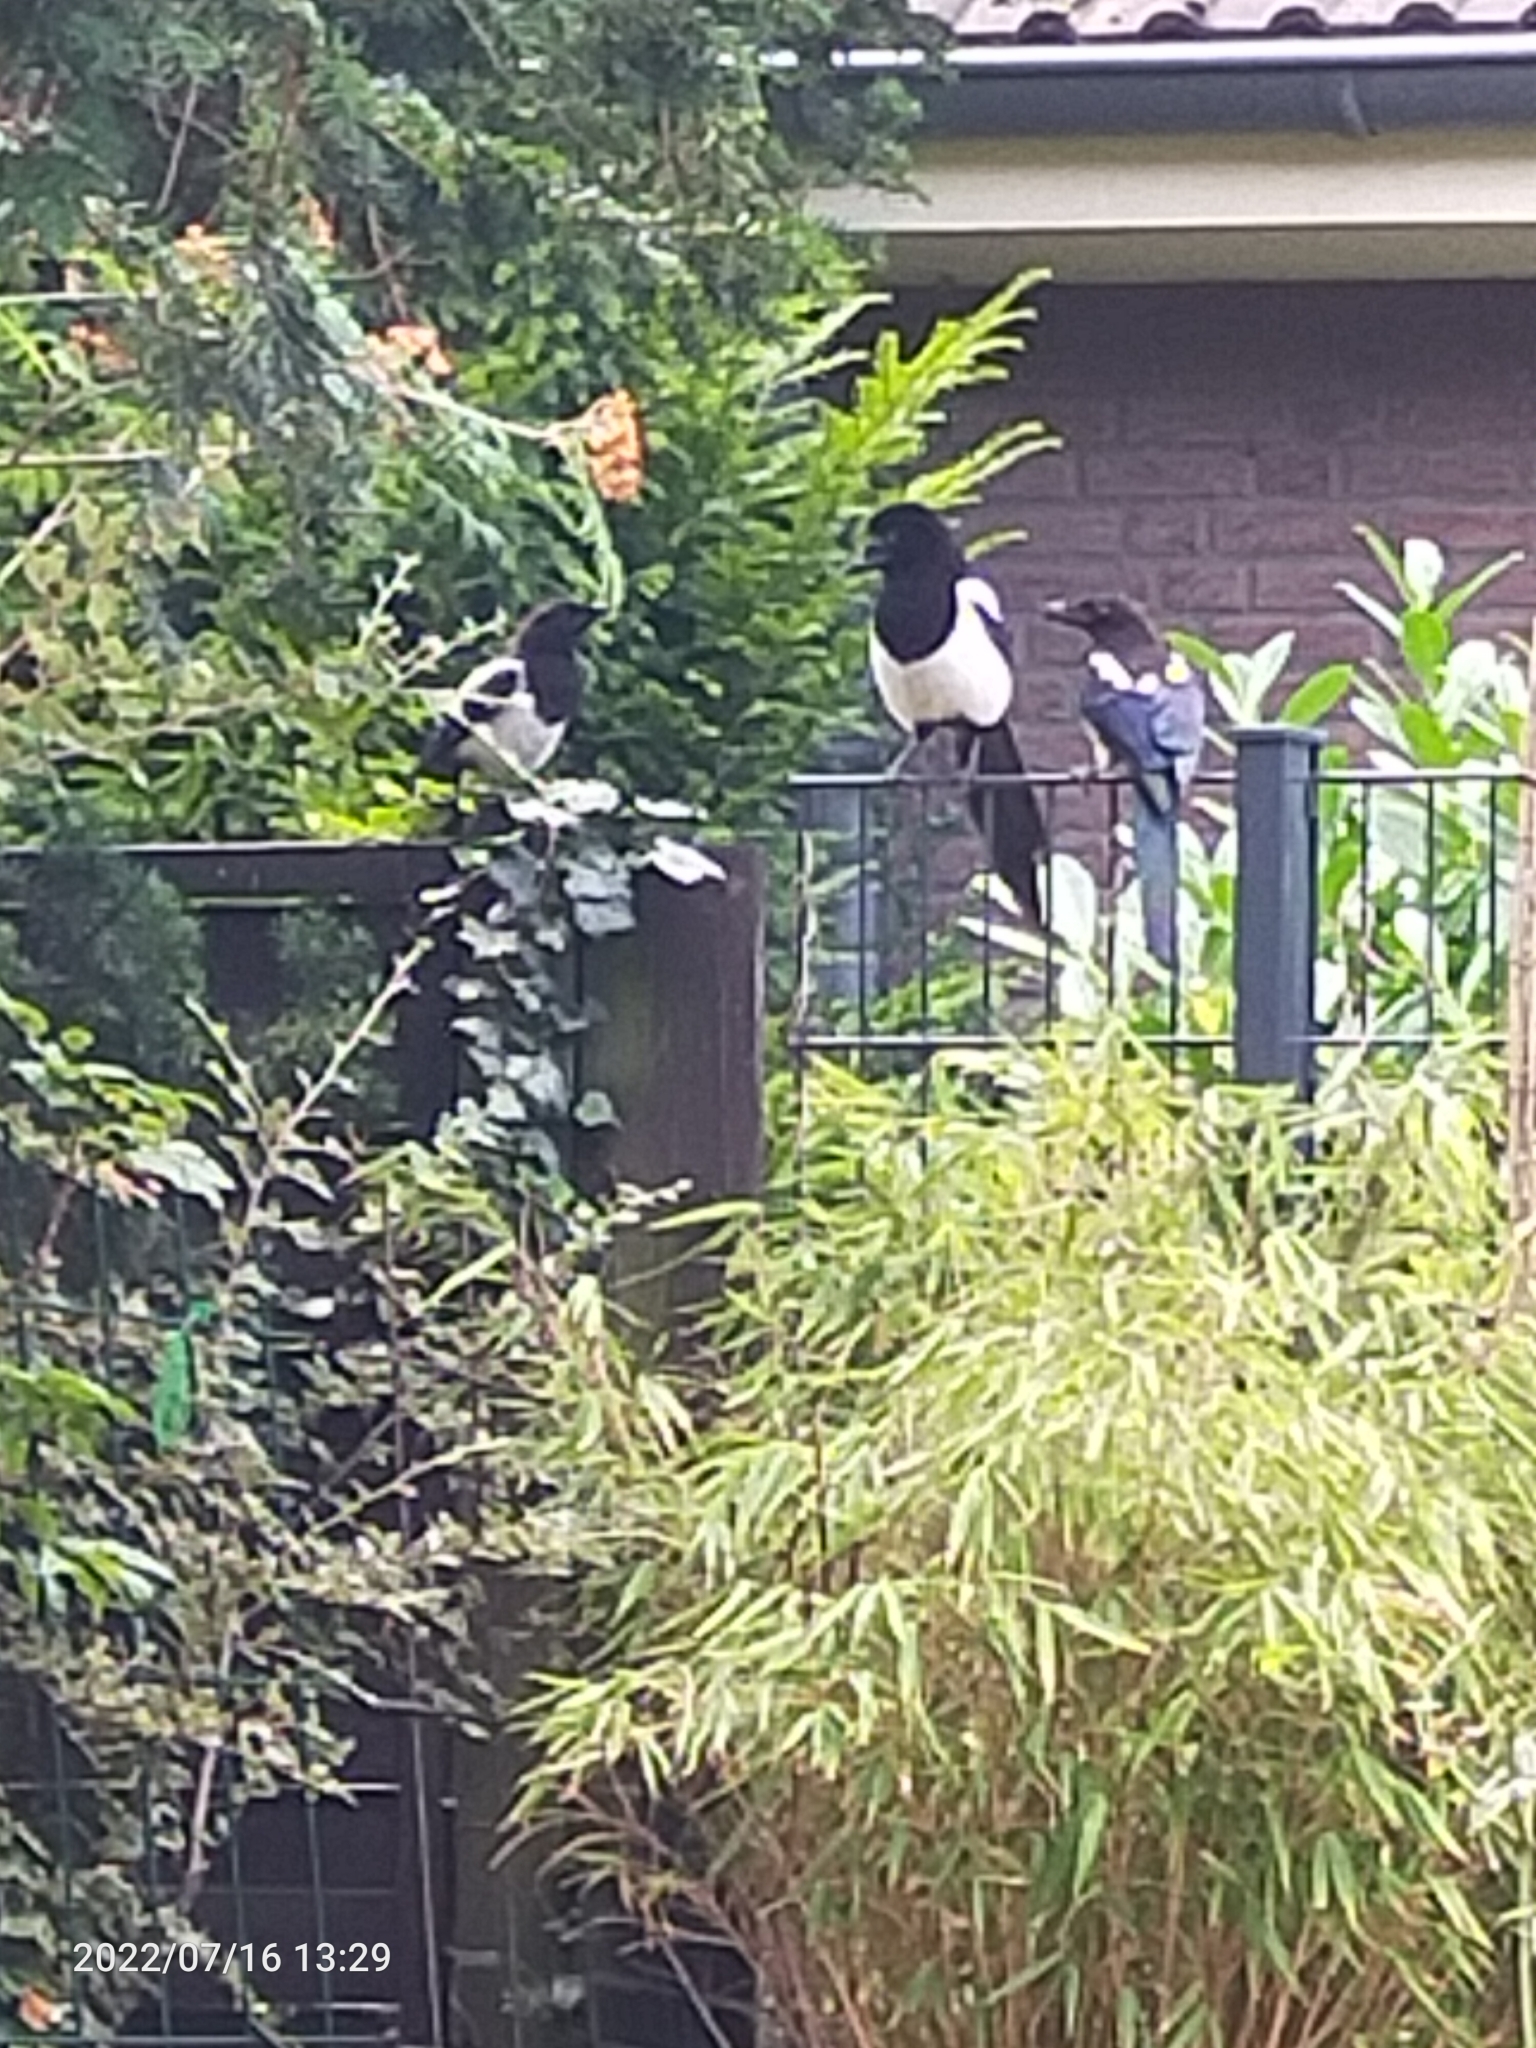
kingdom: Animalia
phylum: Chordata
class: Aves
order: Passeriformes
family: Corvidae
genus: Pica
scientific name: Pica pica
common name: Eurasian magpie
